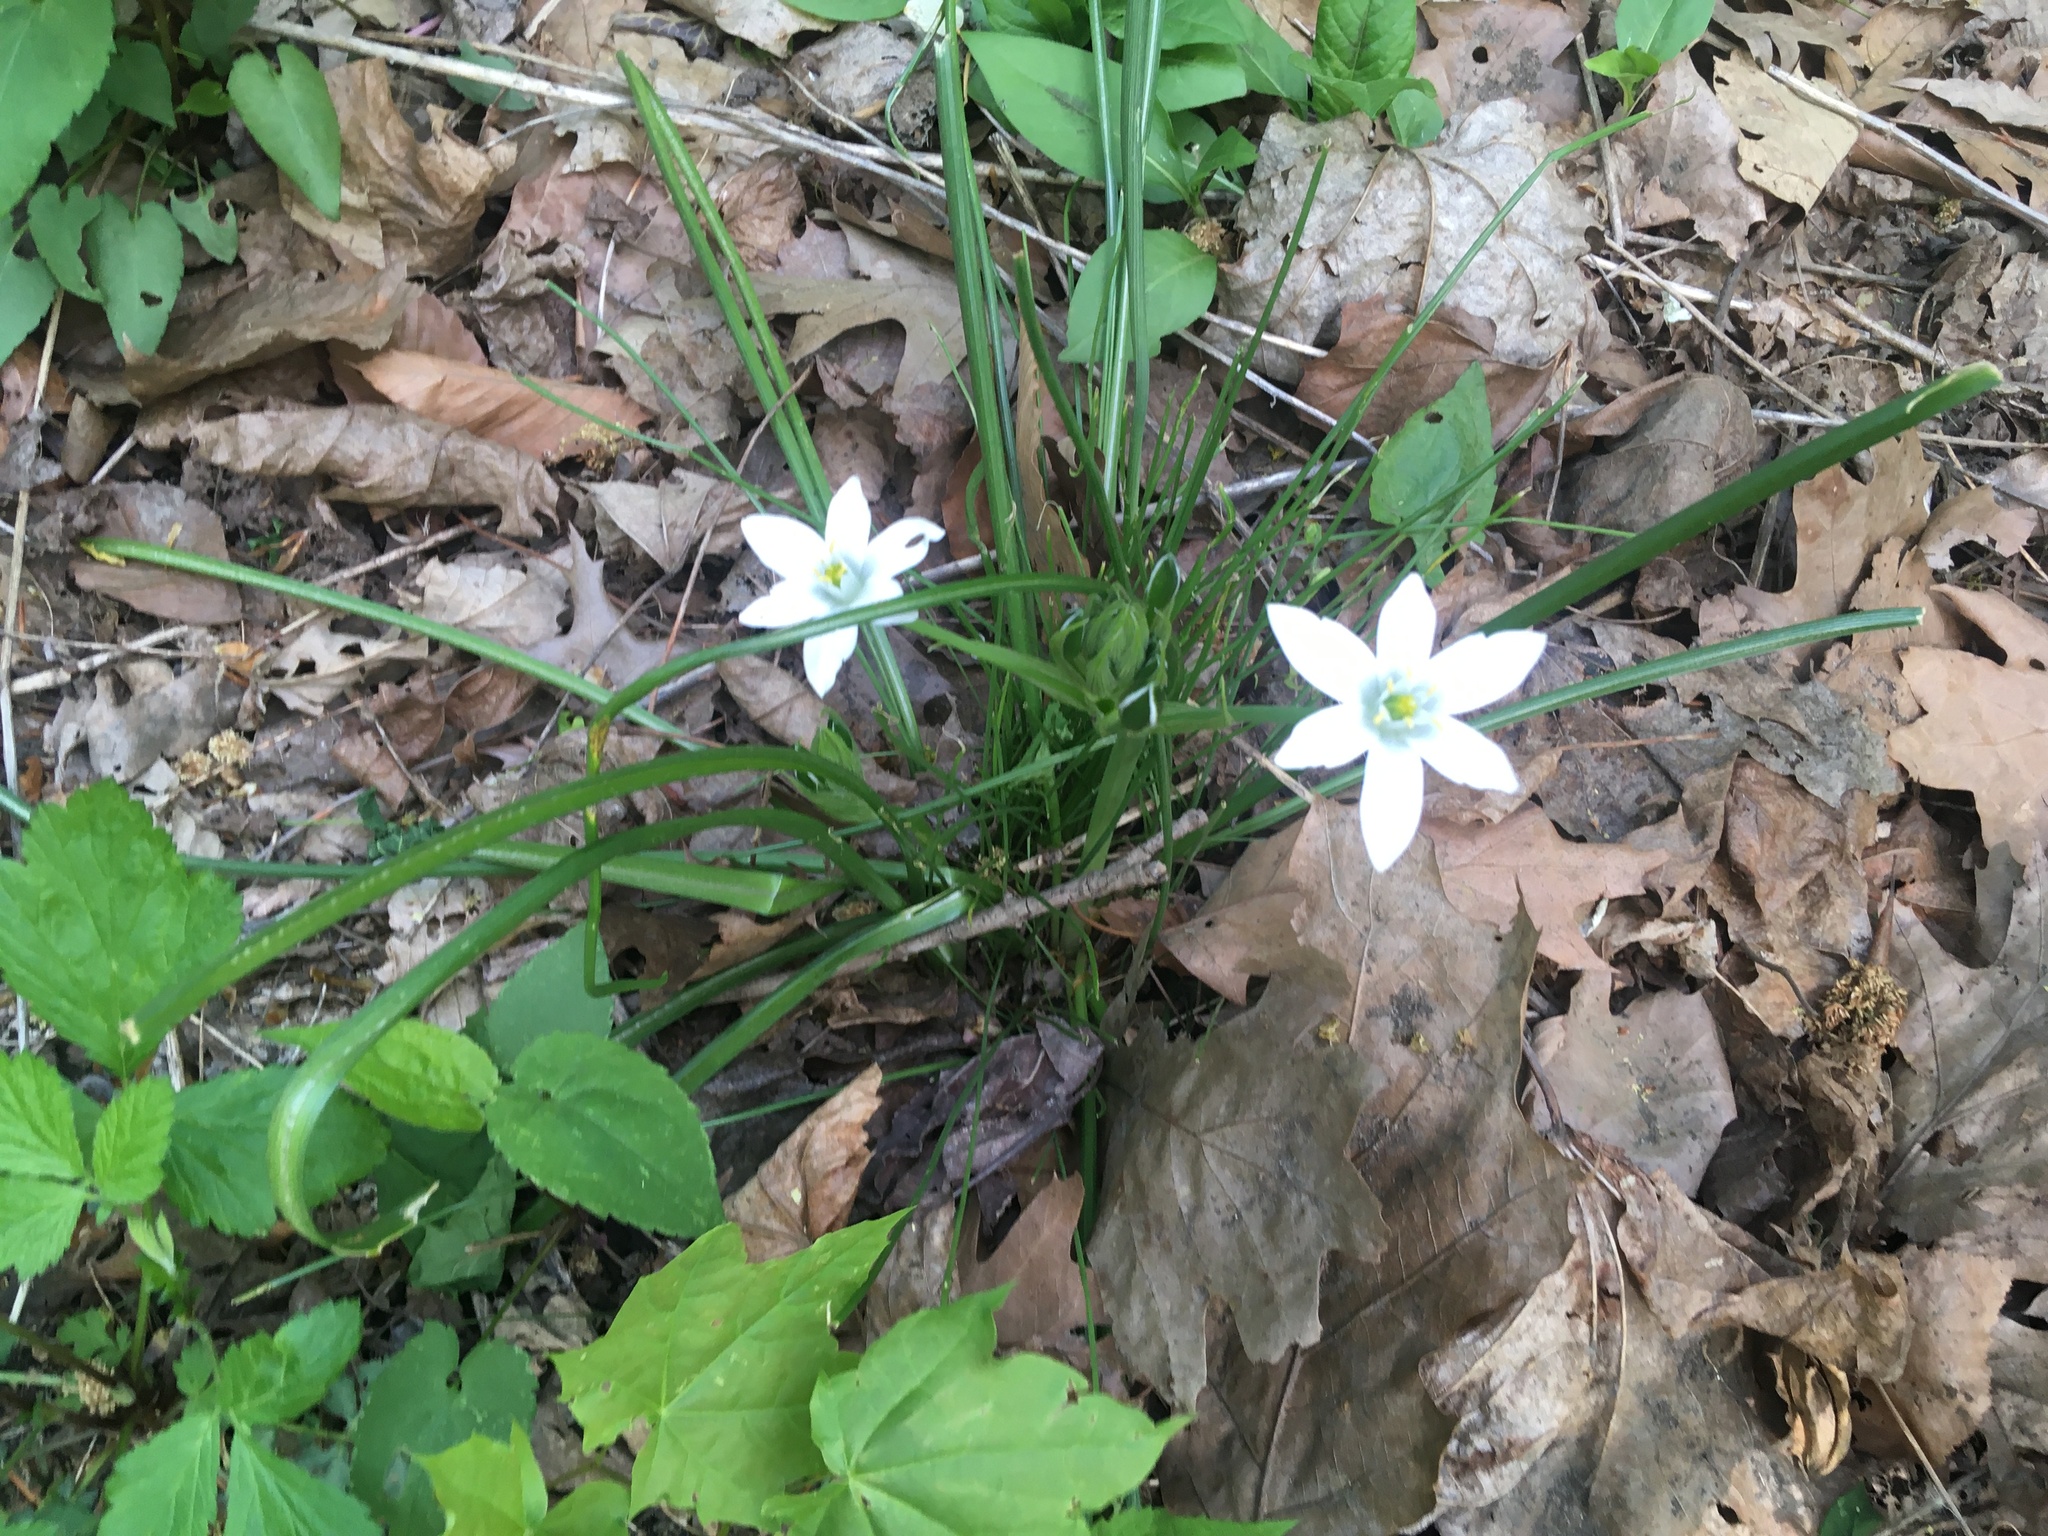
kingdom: Plantae
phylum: Tracheophyta
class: Liliopsida
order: Asparagales
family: Asparagaceae
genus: Ornithogalum
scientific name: Ornithogalum umbellatum
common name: Garden star-of-bethlehem
